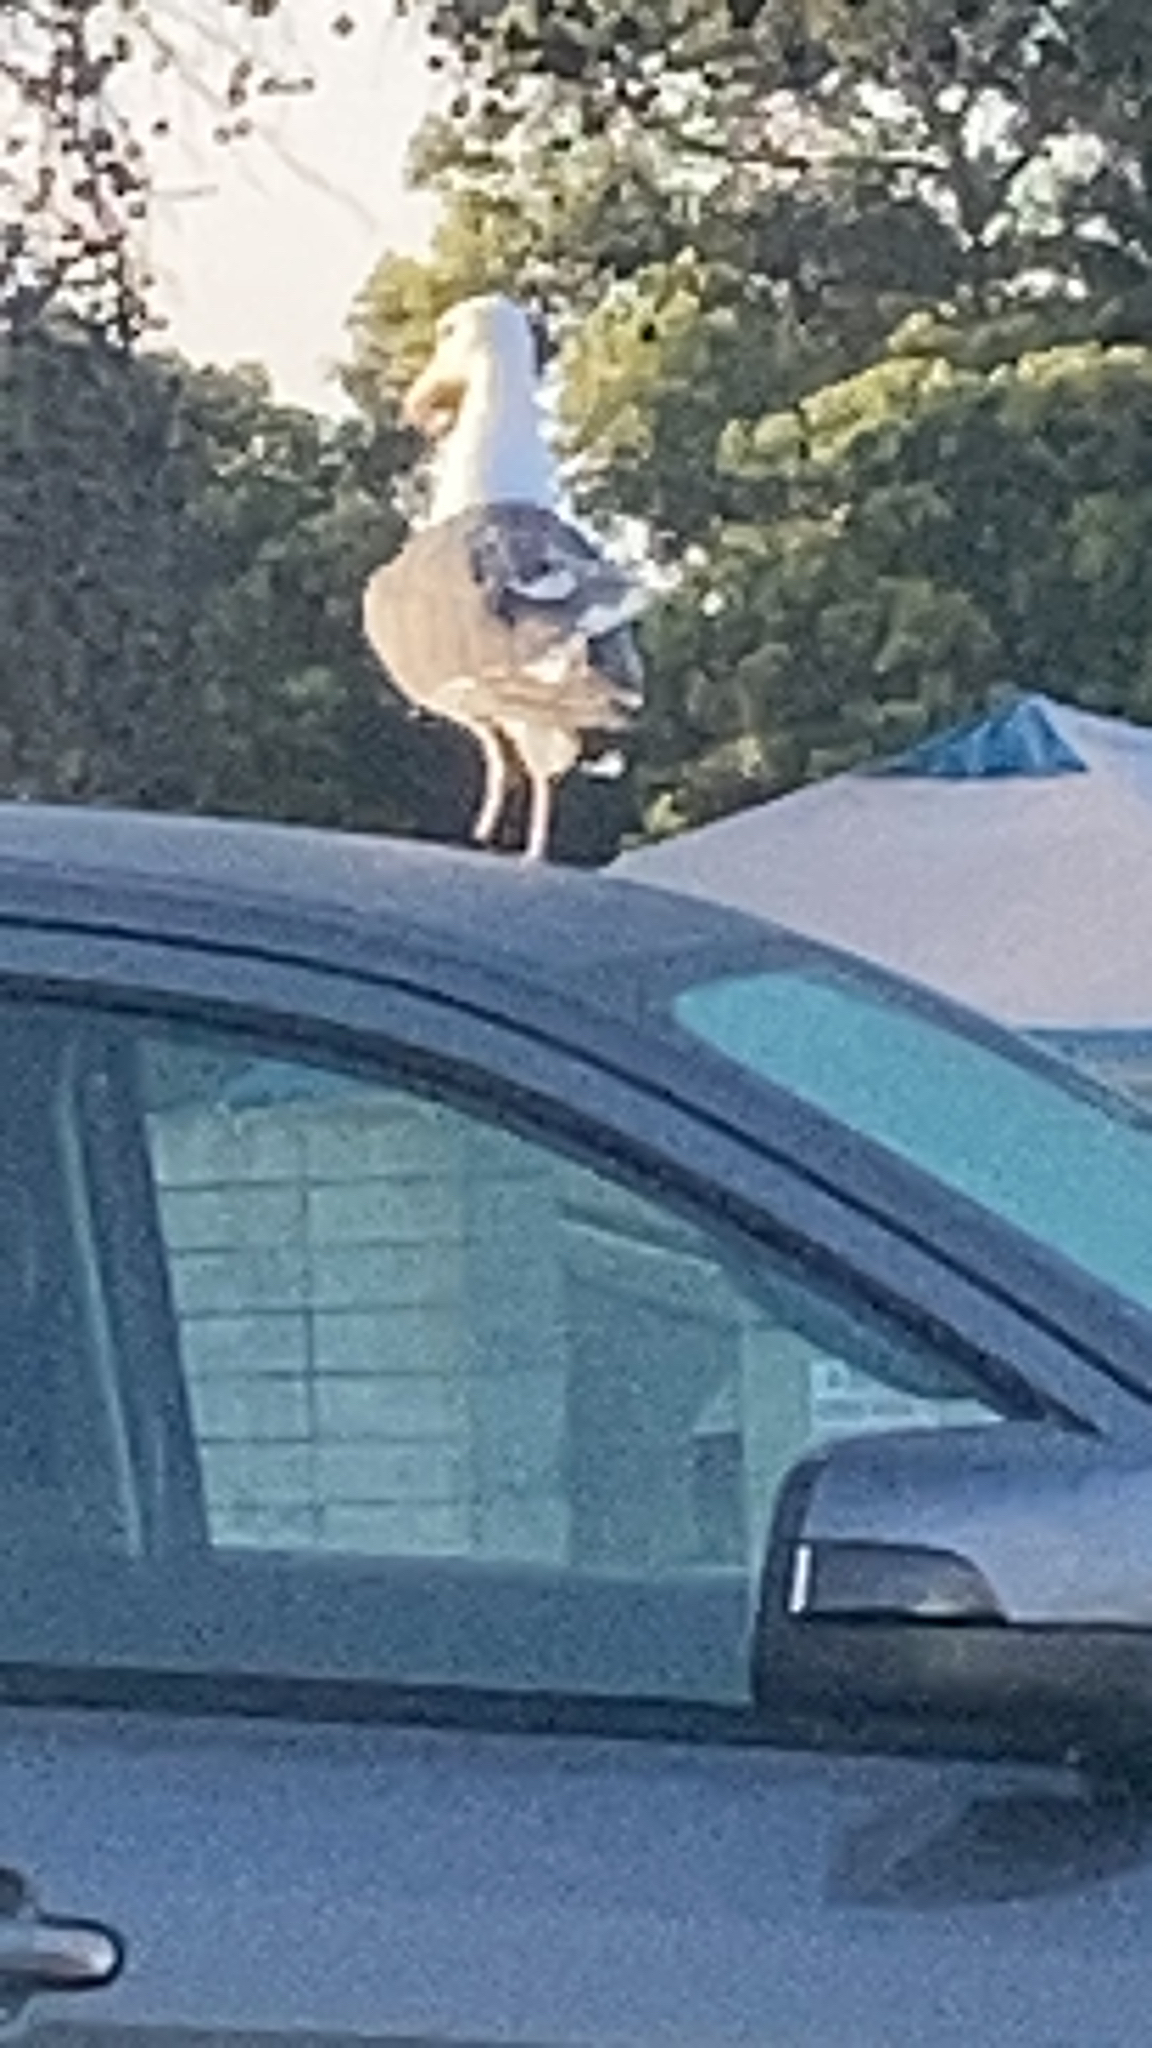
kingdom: Animalia
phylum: Chordata
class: Aves
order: Charadriiformes
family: Laridae
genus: Larus
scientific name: Larus occidentalis
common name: Western gull
